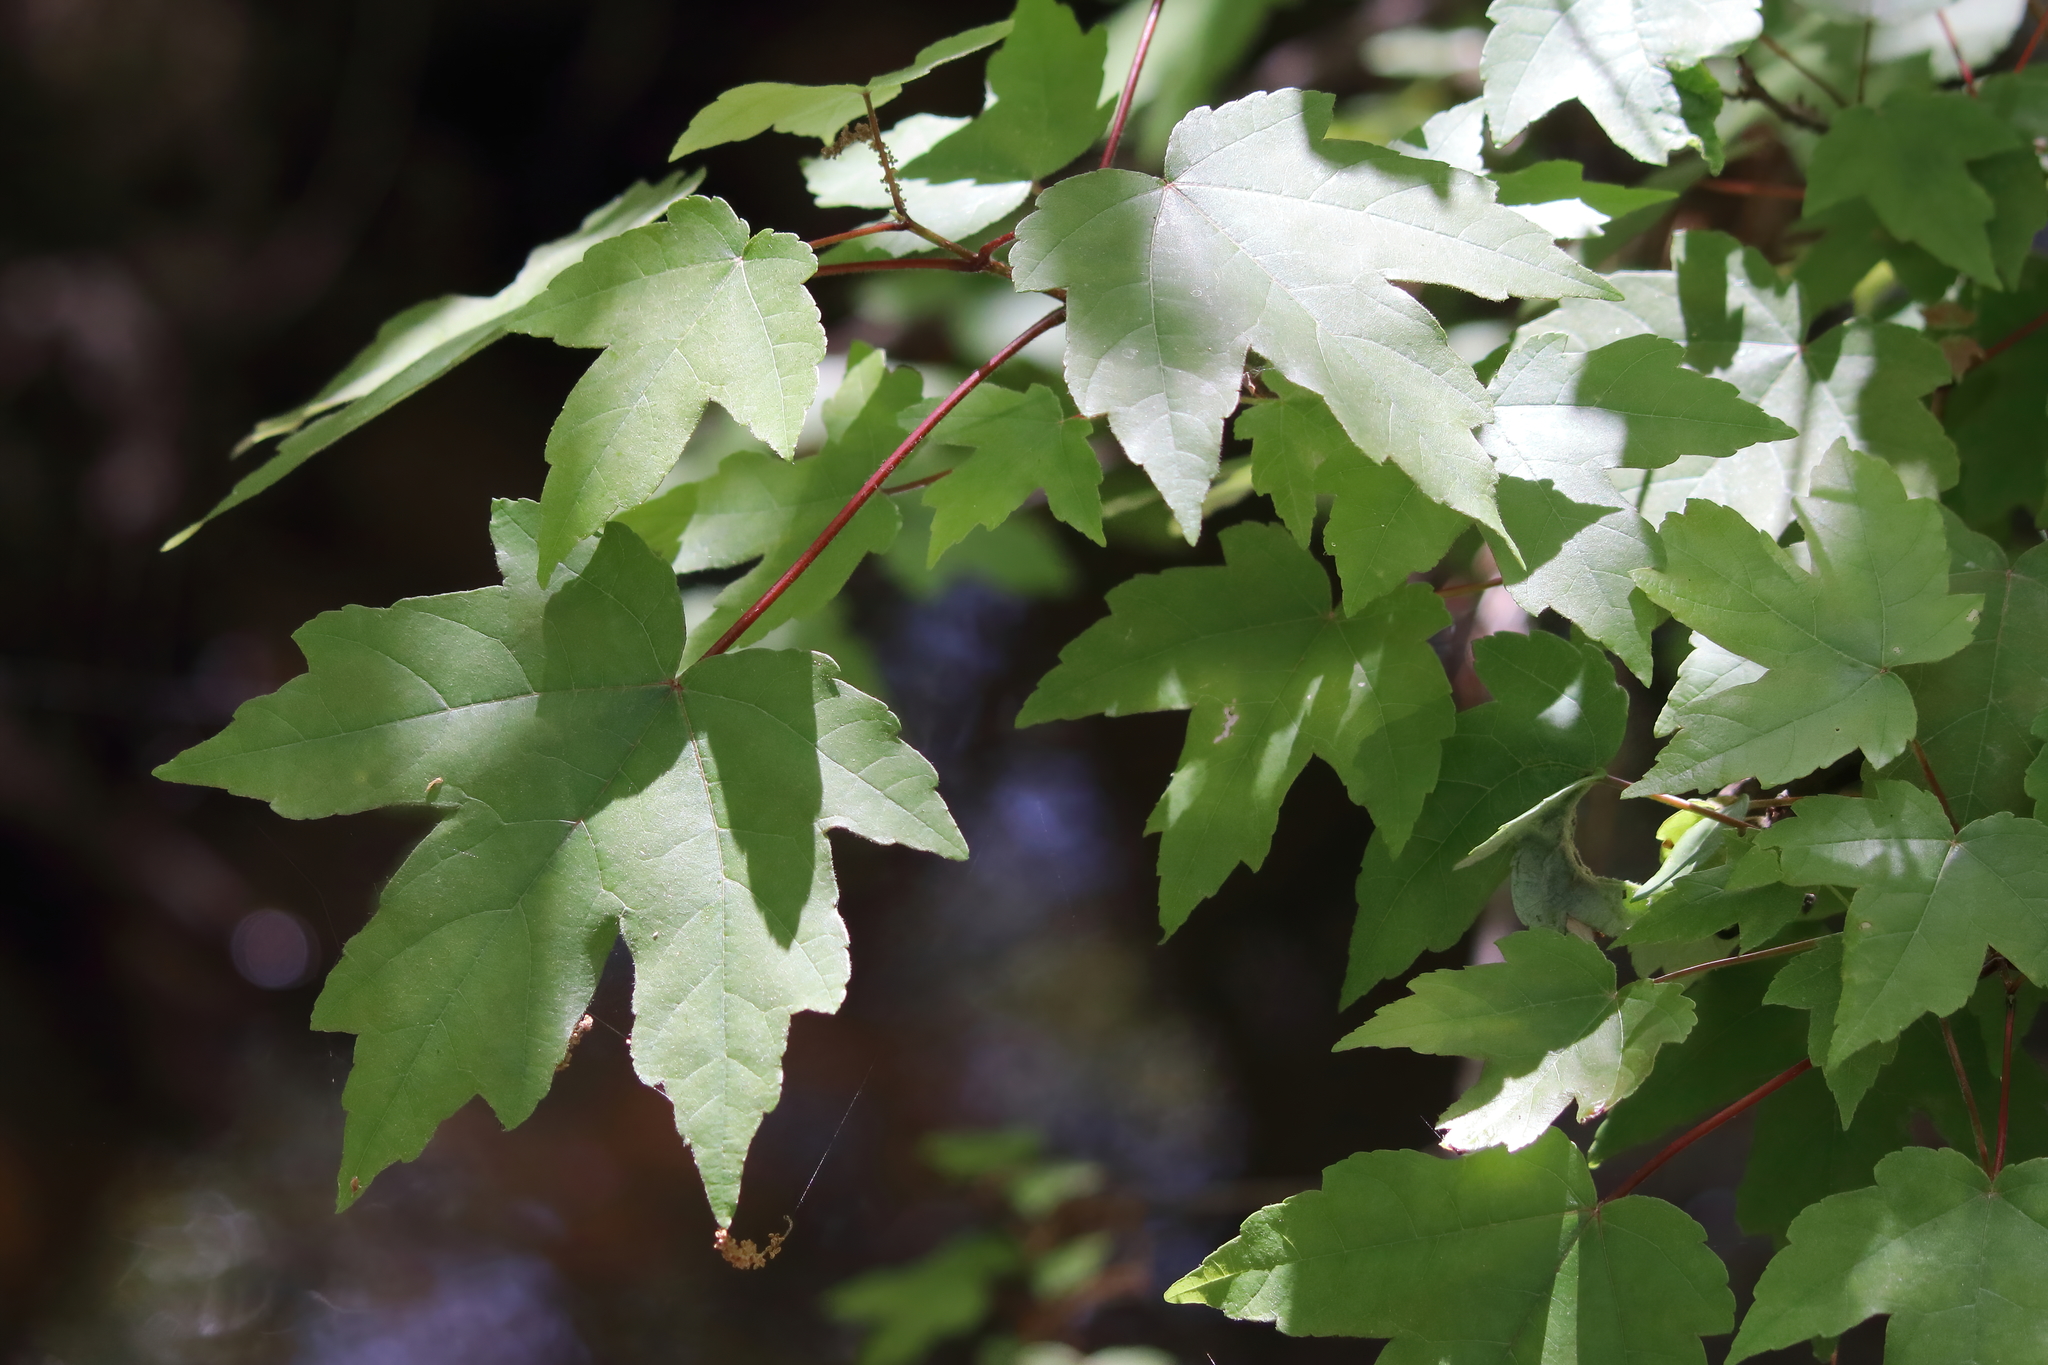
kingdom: Plantae
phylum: Tracheophyta
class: Magnoliopsida
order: Sapindales
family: Sapindaceae
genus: Acer
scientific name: Acer rubrum
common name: Red maple
